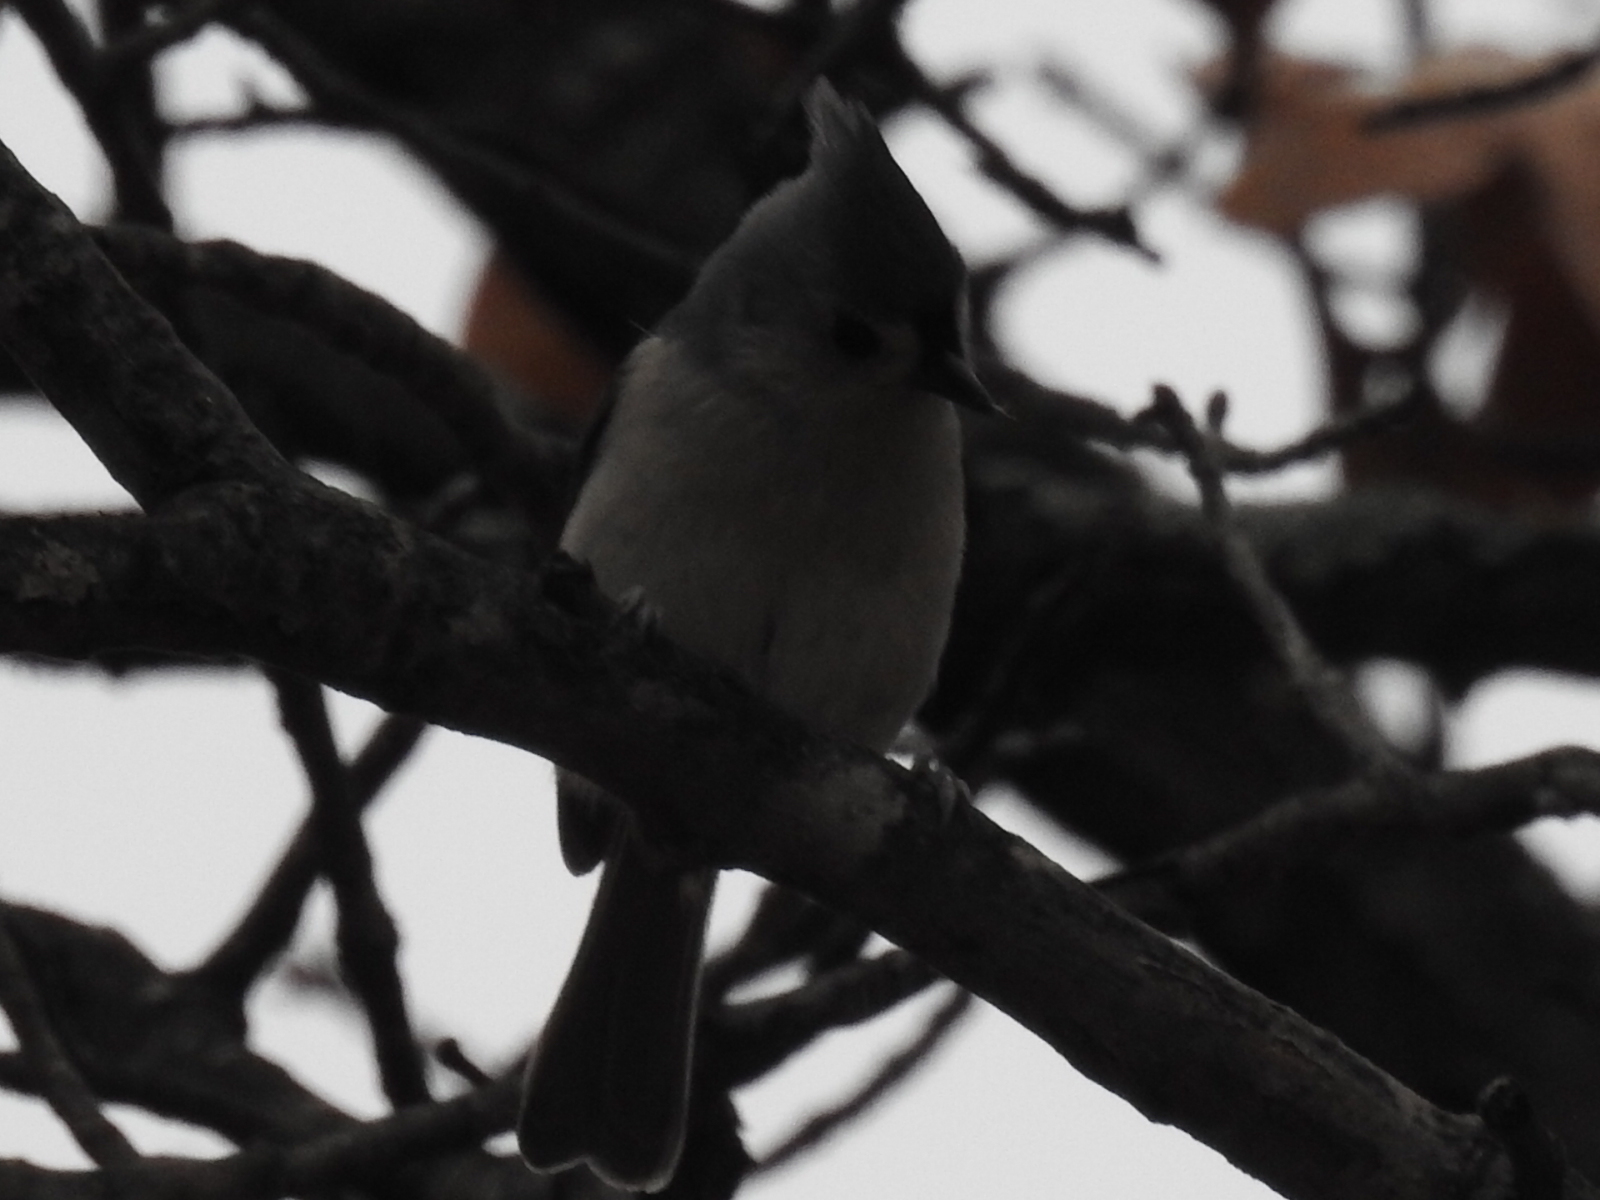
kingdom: Animalia
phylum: Chordata
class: Aves
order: Passeriformes
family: Paridae
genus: Baeolophus
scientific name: Baeolophus bicolor
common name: Tufted titmouse
